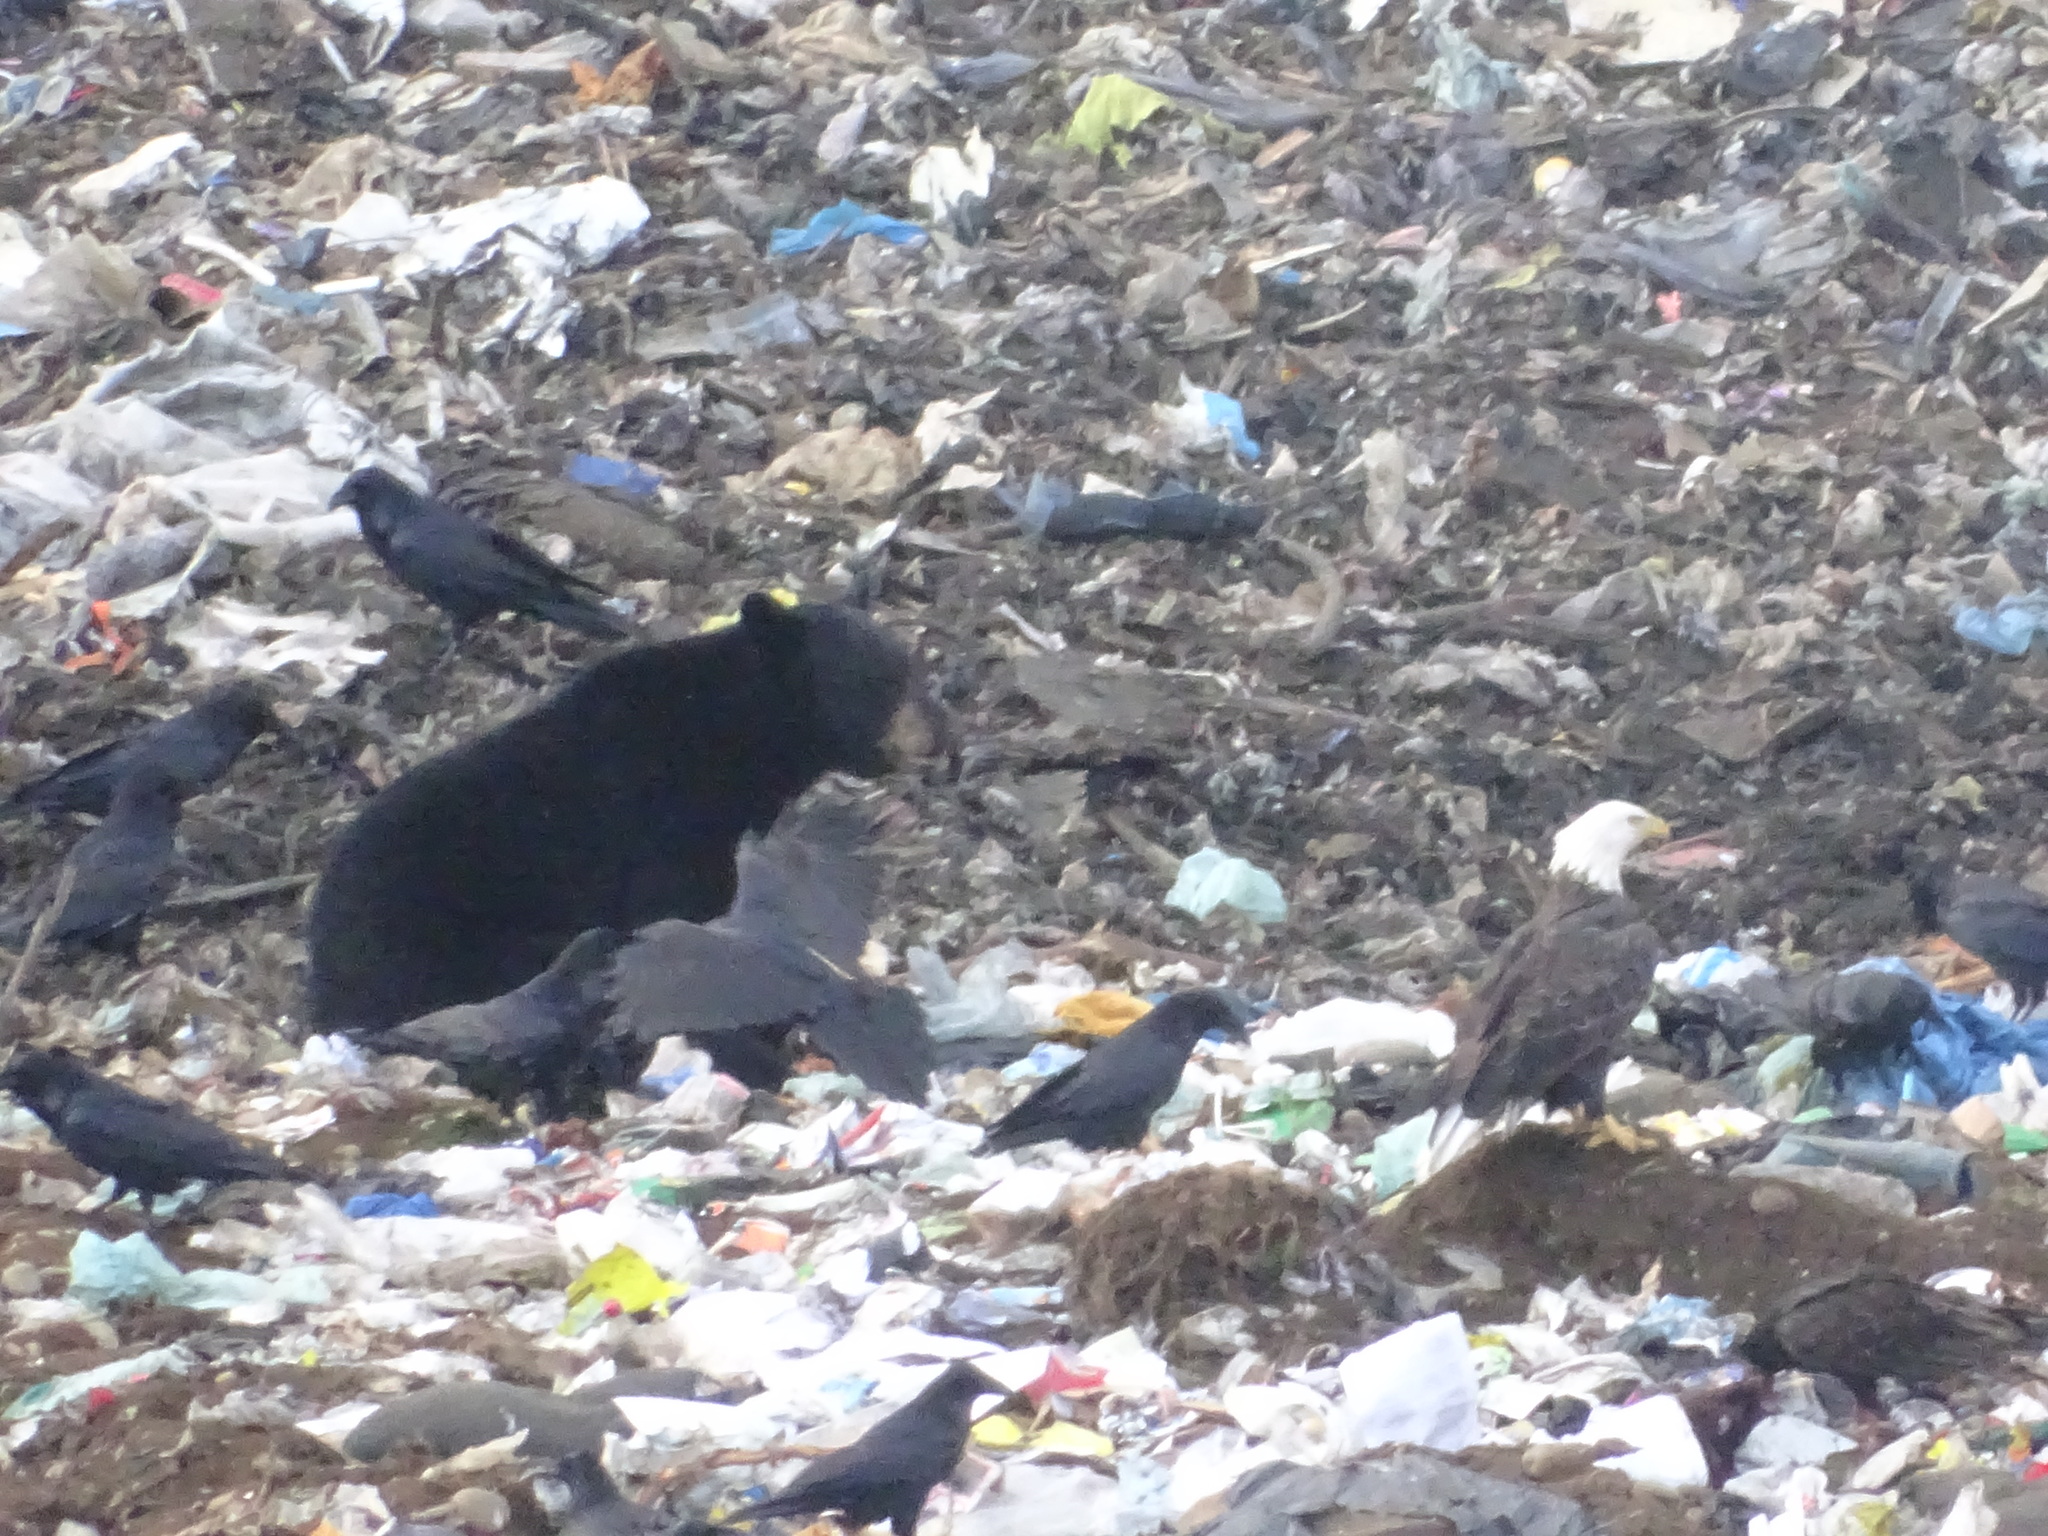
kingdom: Animalia
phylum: Chordata
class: Aves
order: Accipitriformes
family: Accipitridae
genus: Haliaeetus
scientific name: Haliaeetus leucocephalus
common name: Bald eagle
